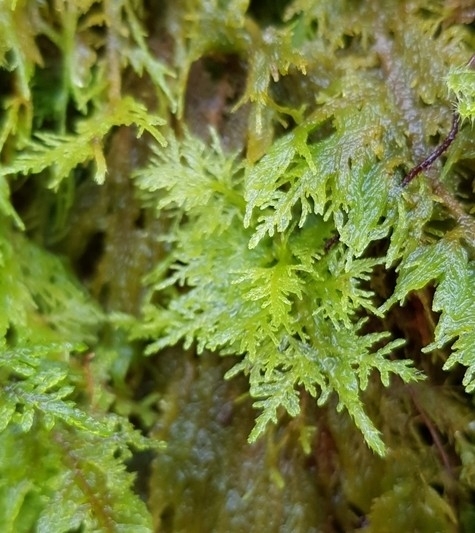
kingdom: Plantae
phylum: Bryophyta
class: Bryopsida
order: Hypnales
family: Thuidiaceae
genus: Thuidium
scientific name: Thuidium tamariscinum
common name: Common tamarisk-moss
